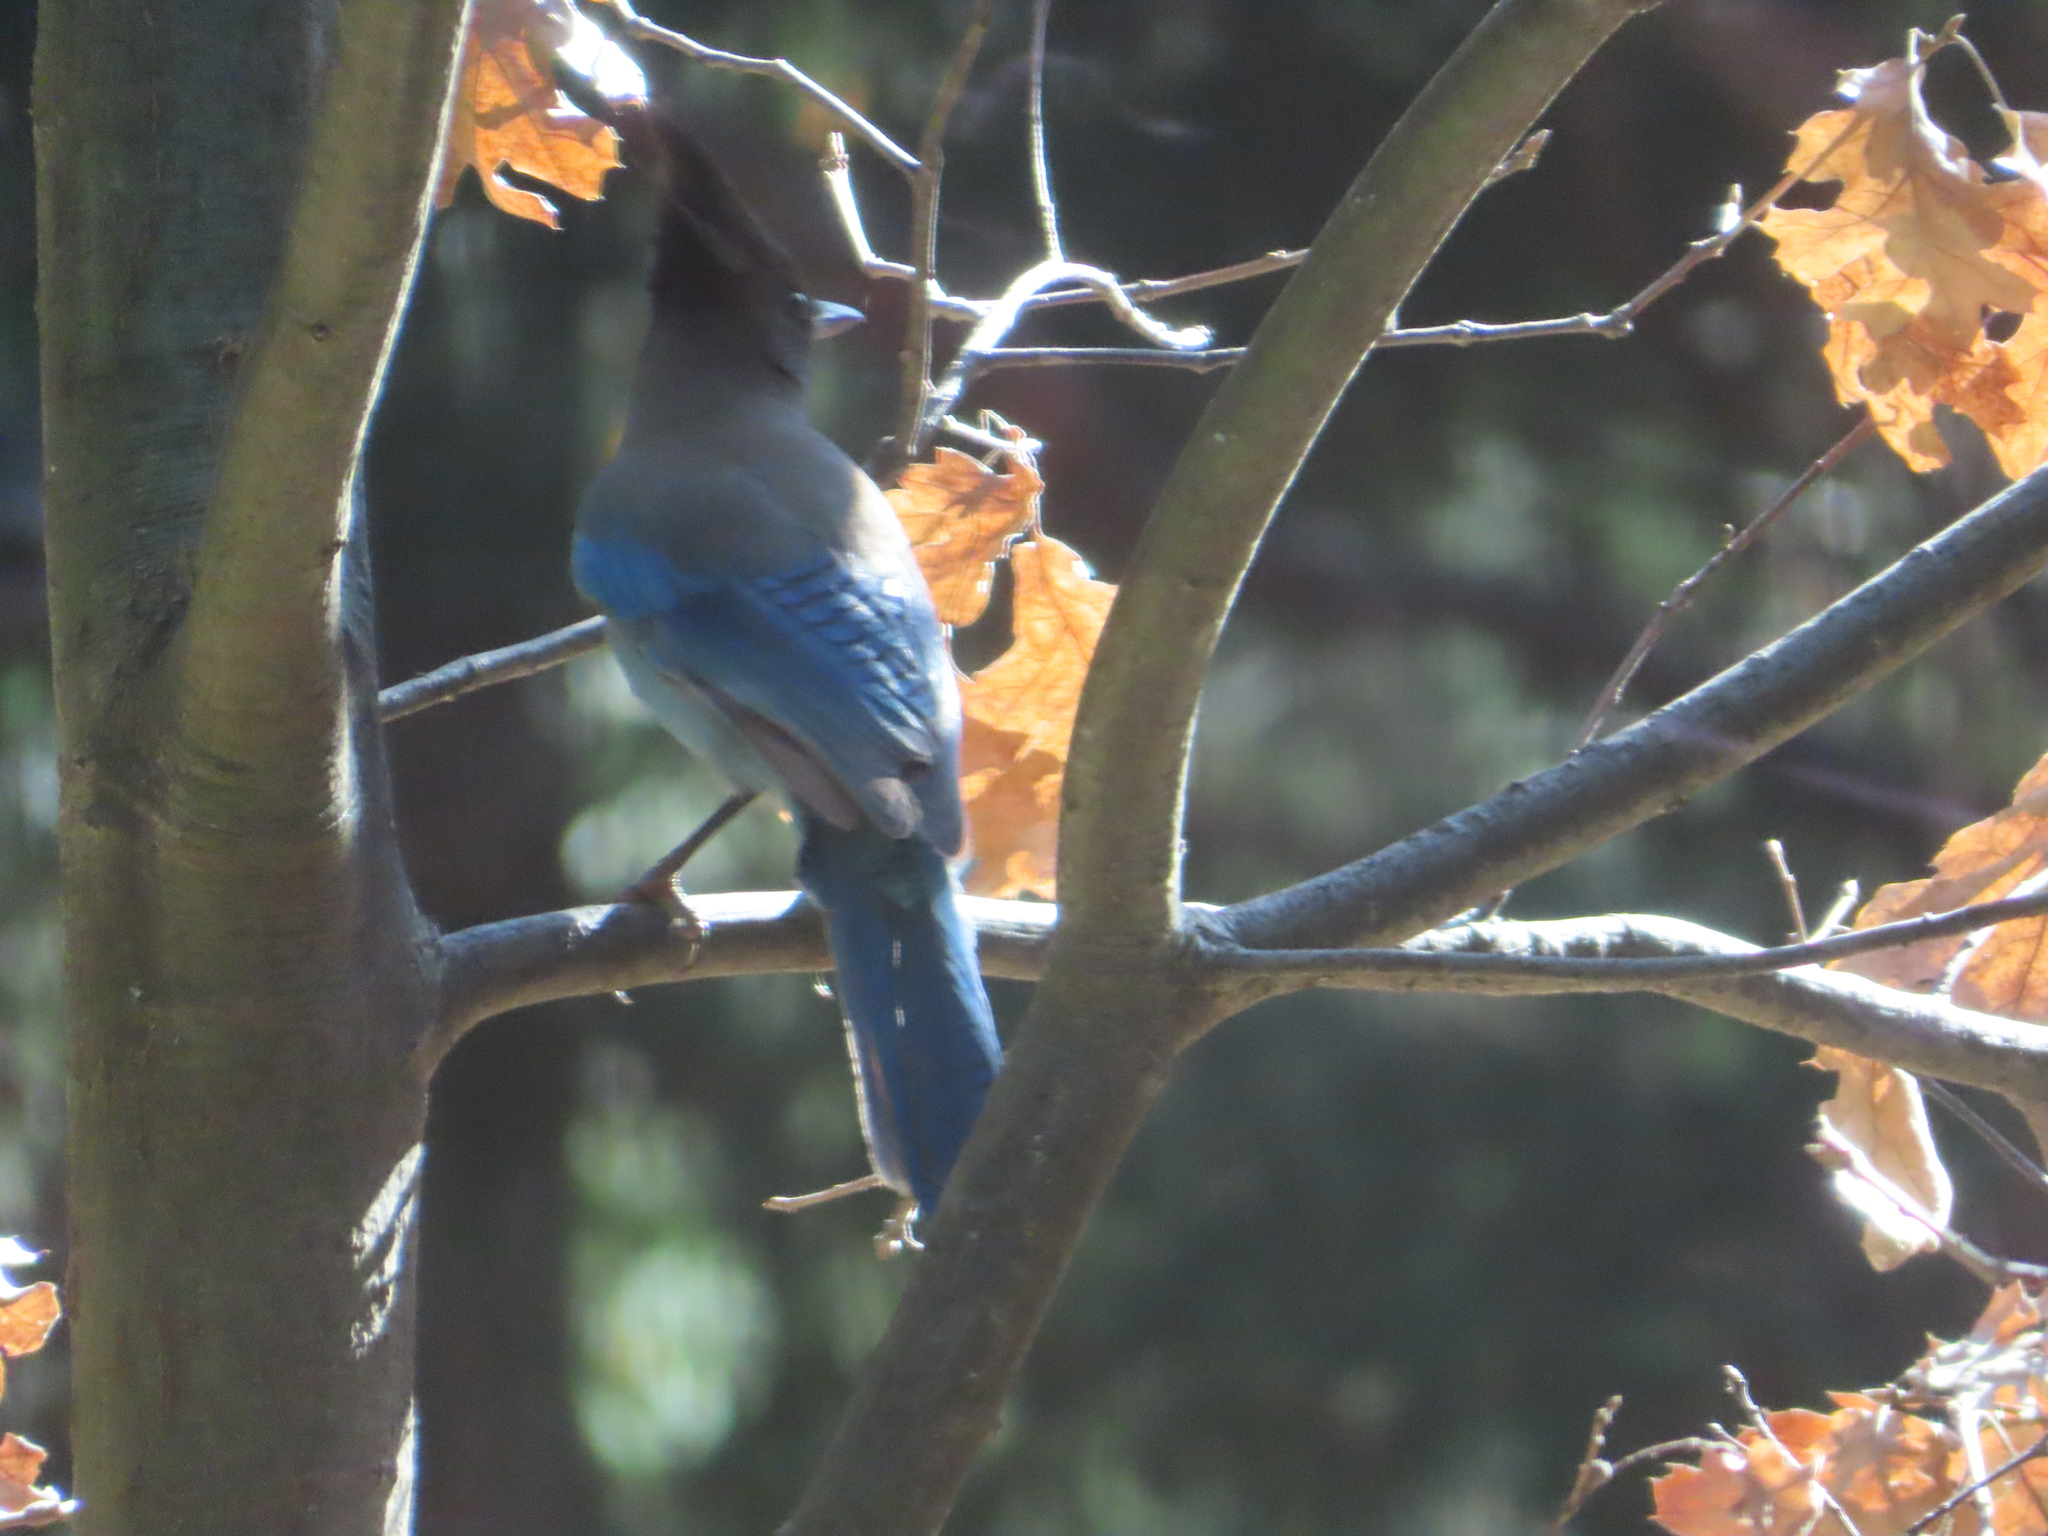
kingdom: Animalia
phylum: Chordata
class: Aves
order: Passeriformes
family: Corvidae
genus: Cyanocitta
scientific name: Cyanocitta stelleri
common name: Steller's jay
